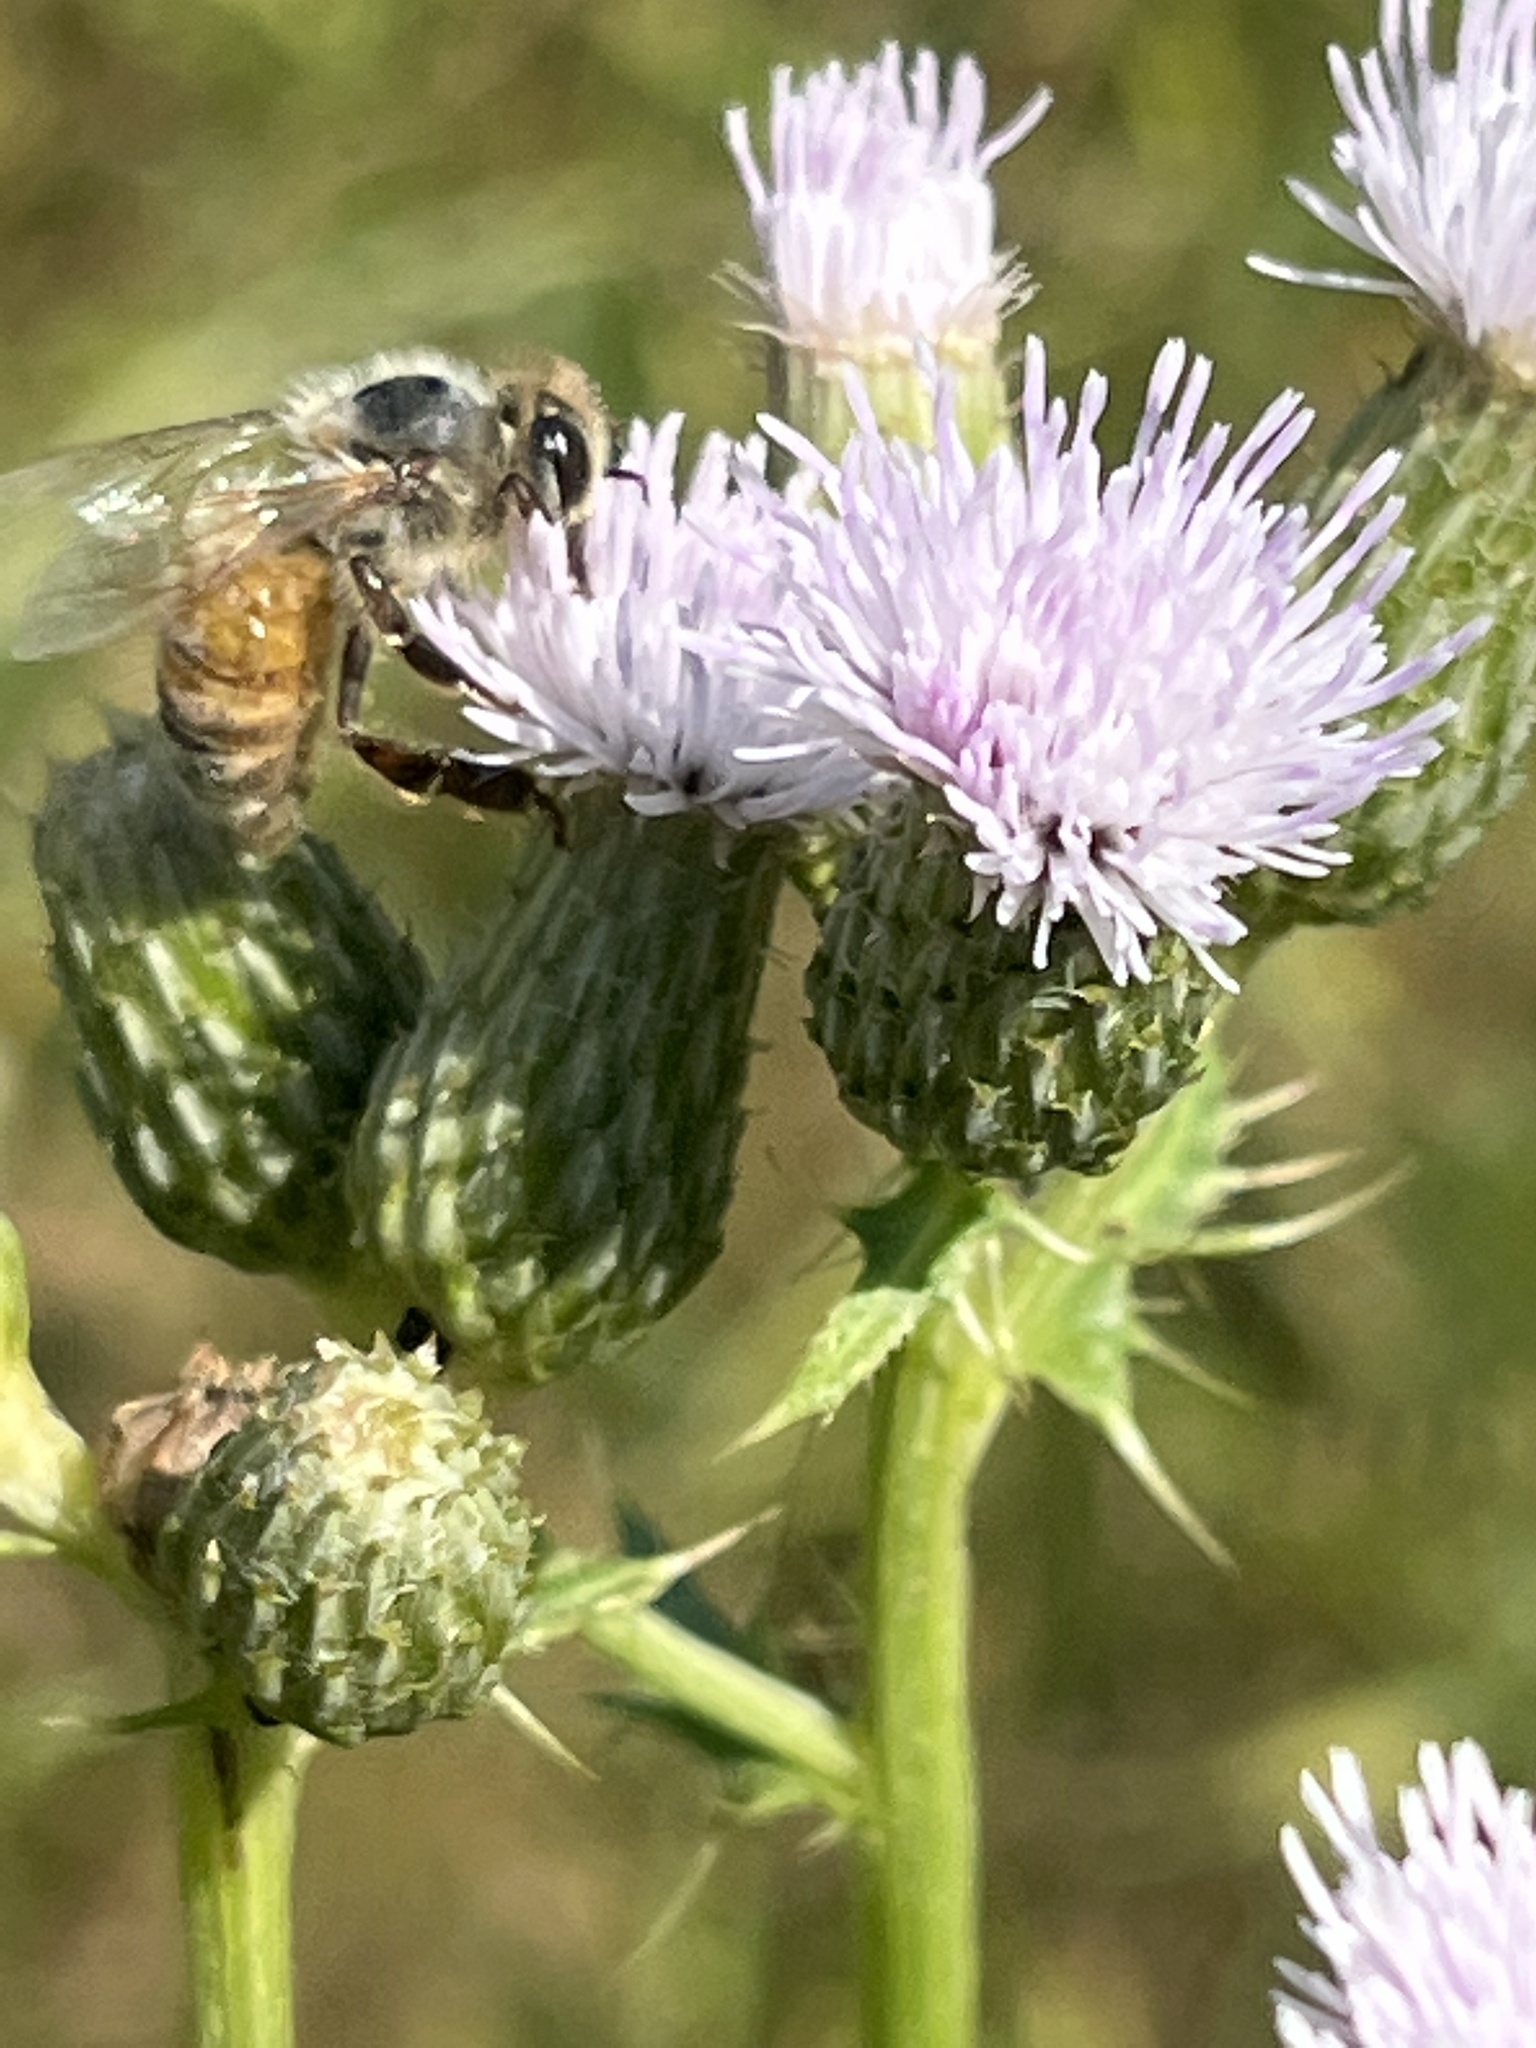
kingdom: Animalia
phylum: Arthropoda
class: Insecta
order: Hymenoptera
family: Apidae
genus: Apis
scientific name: Apis mellifera
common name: Honey bee
